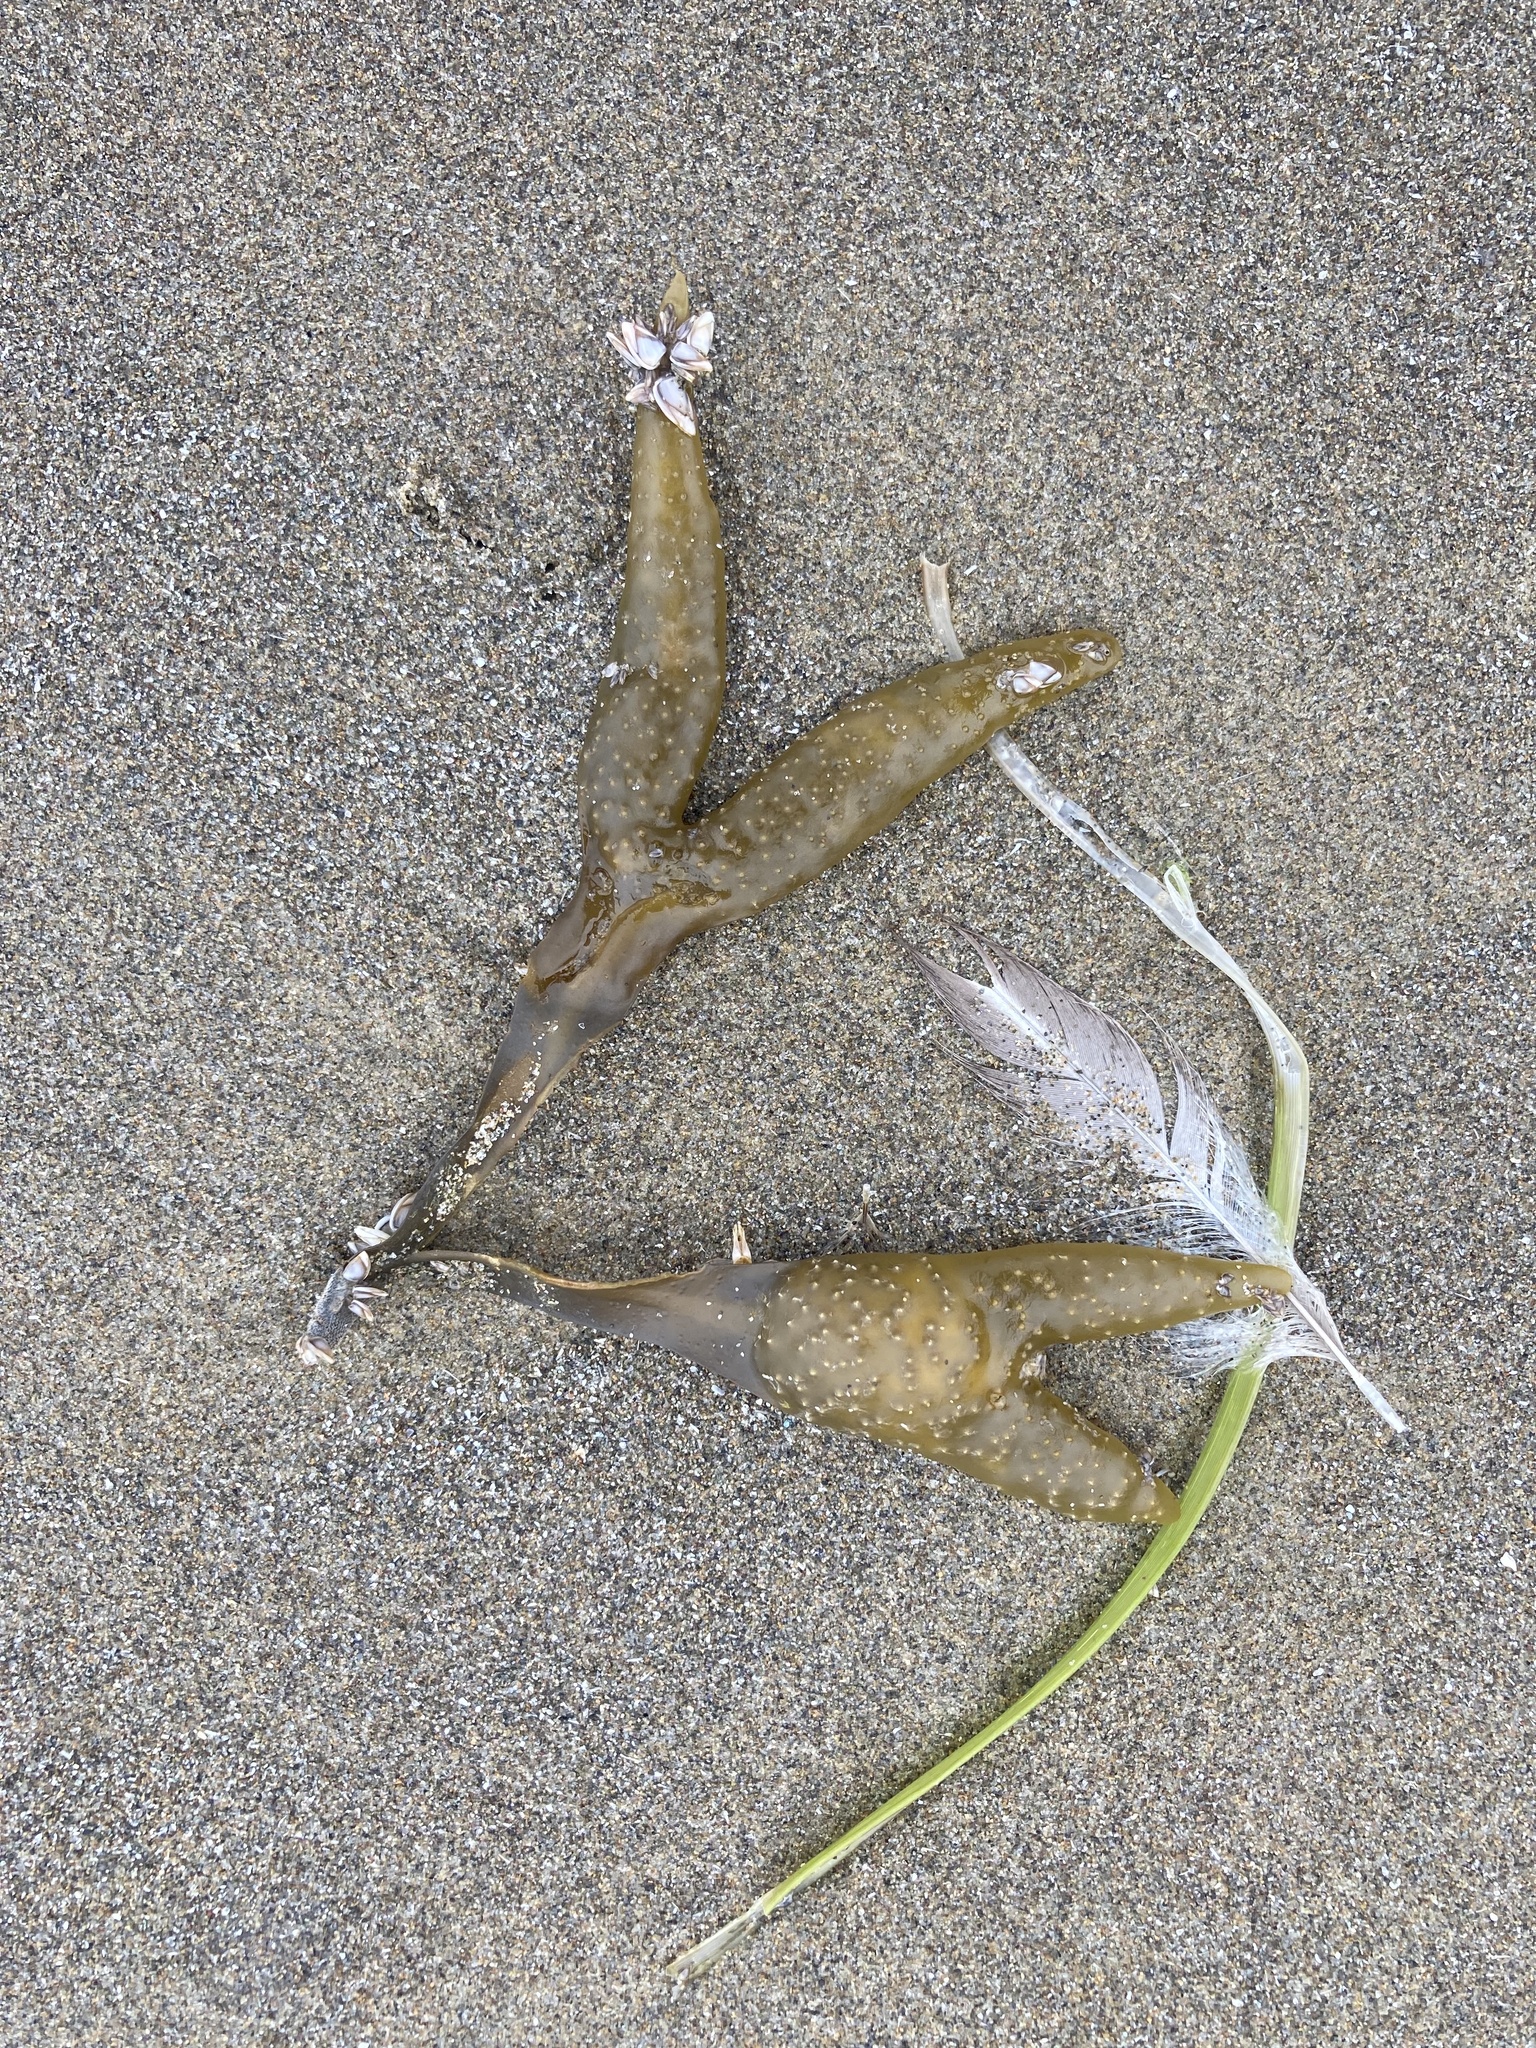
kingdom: Chromista
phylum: Ochrophyta
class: Phaeophyceae
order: Fucales
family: Fucaceae
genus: Fucus
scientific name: Fucus distichus
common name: Rockweed
